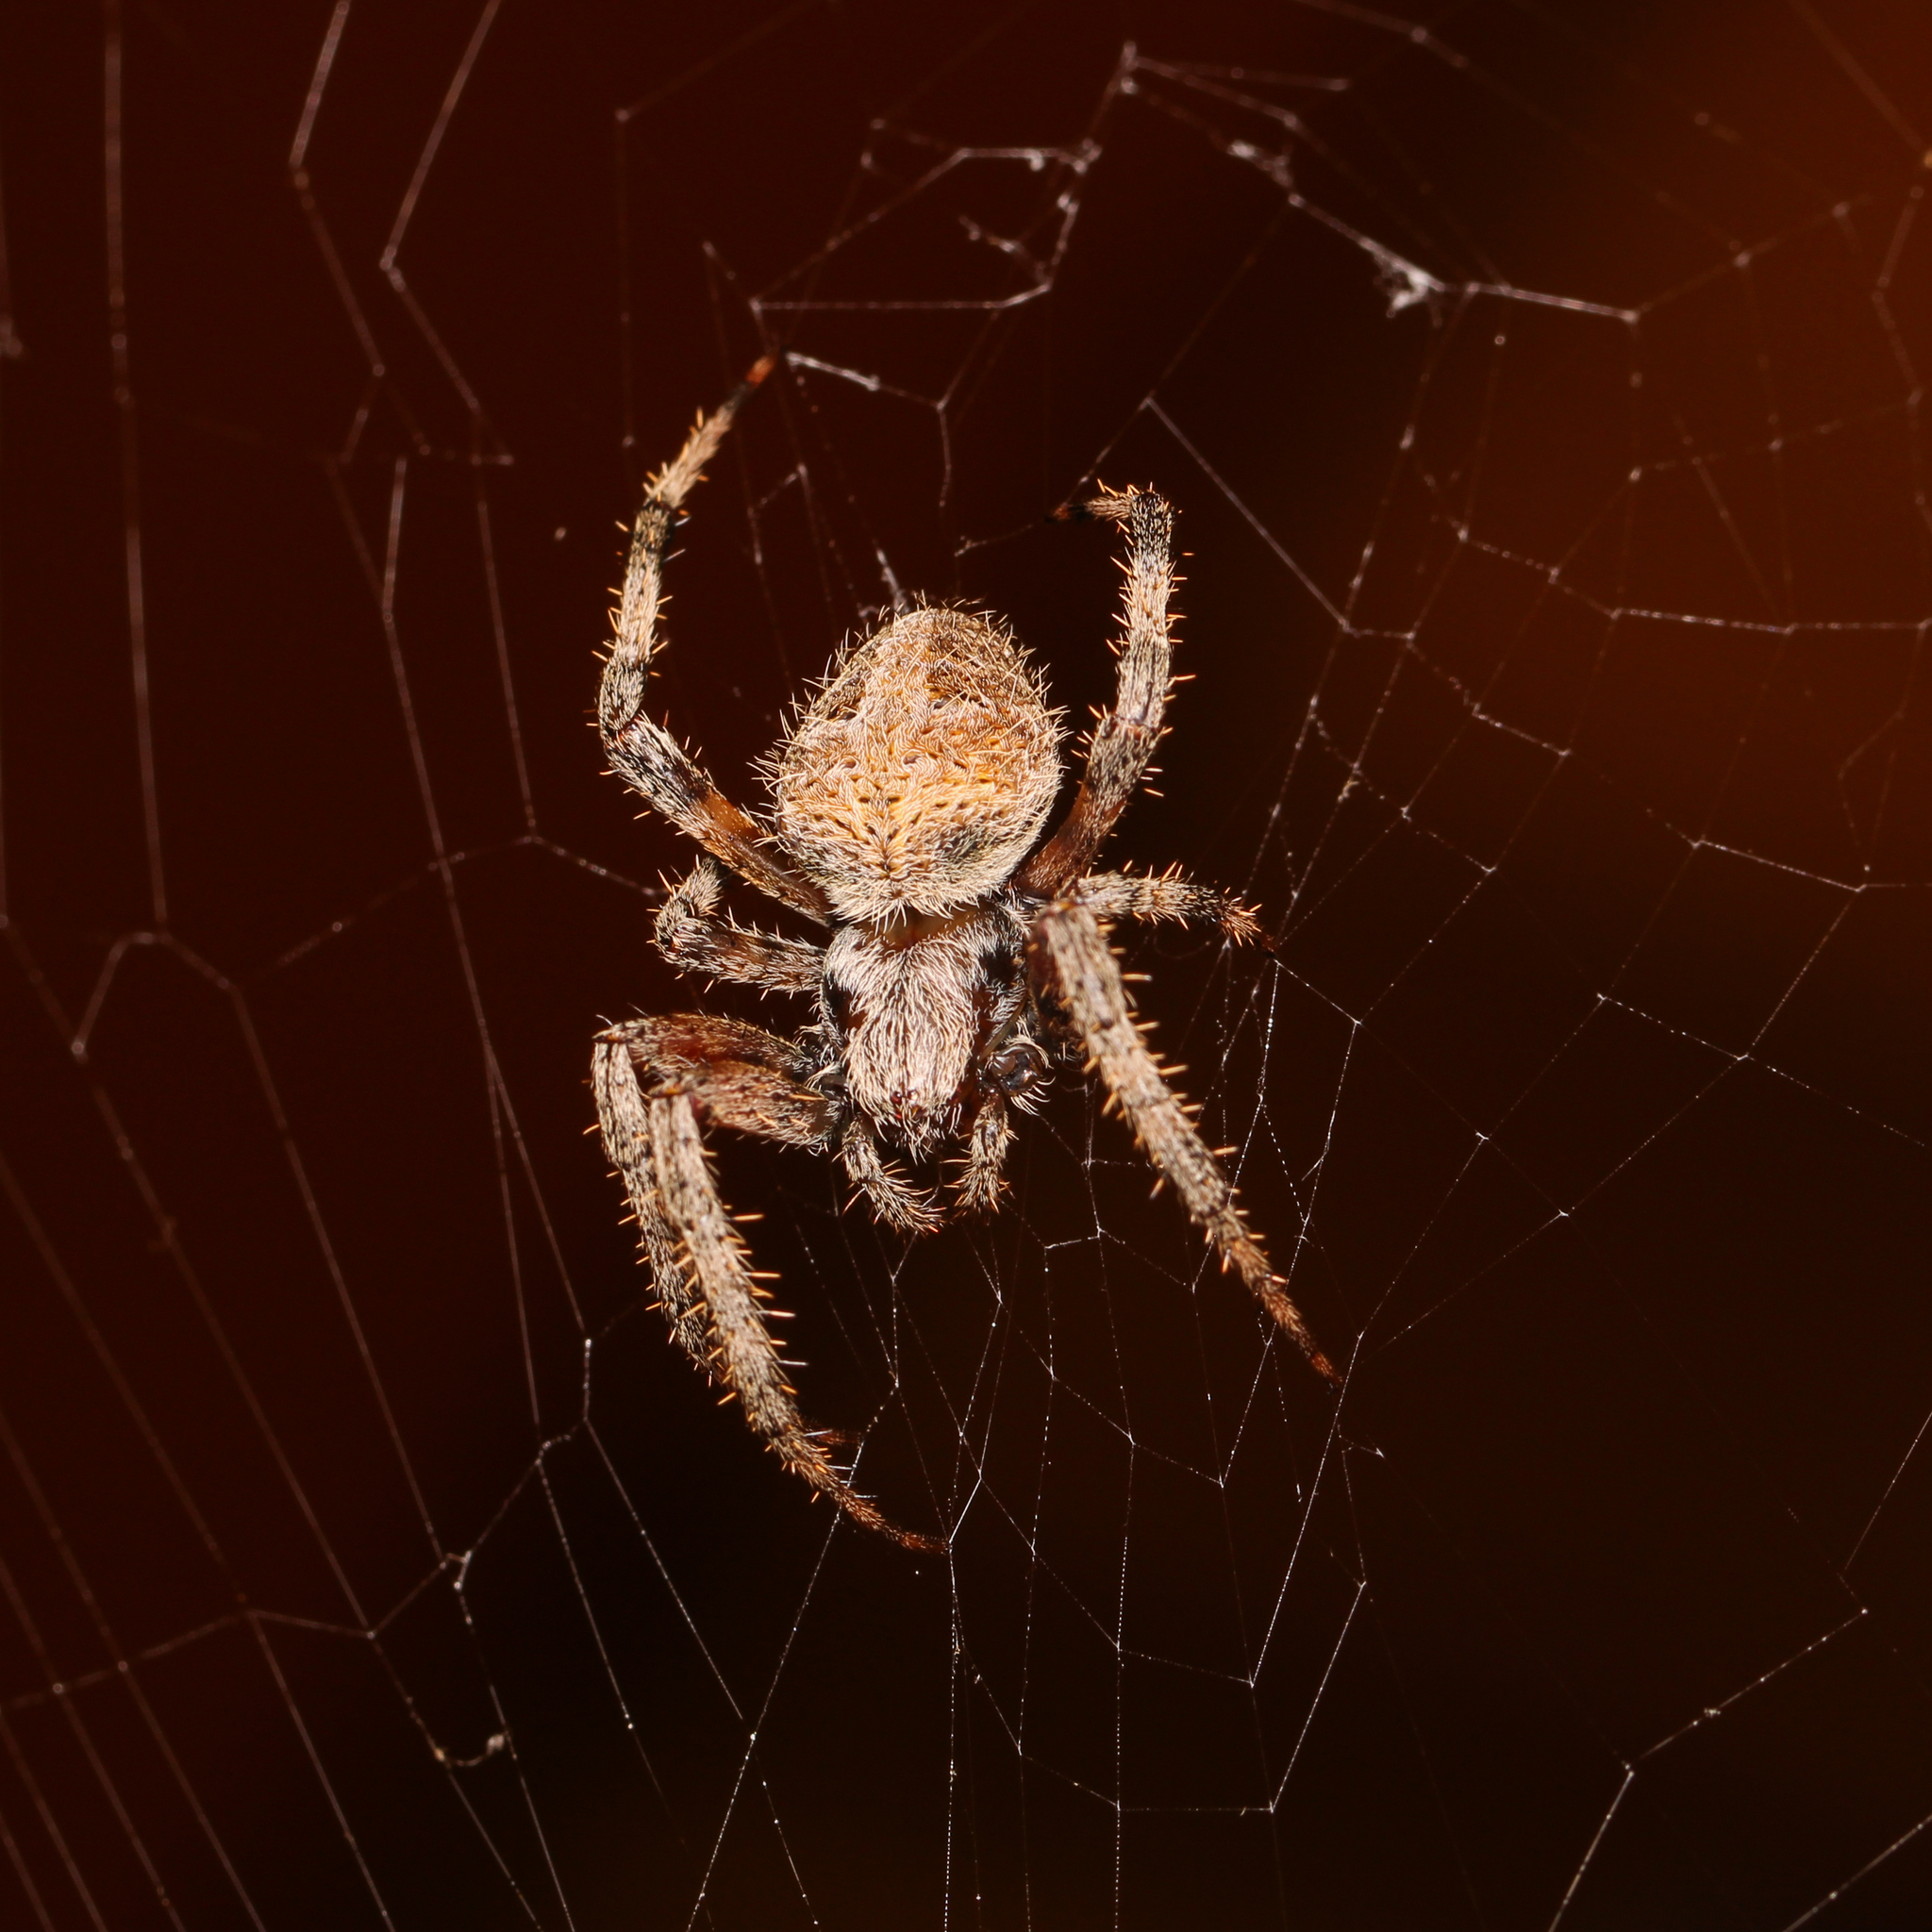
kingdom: Animalia
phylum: Arthropoda
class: Arachnida
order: Araneae
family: Araneidae
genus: Neoscona
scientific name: Neoscona domiciliorum
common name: Red-femured spotted orbweaver
